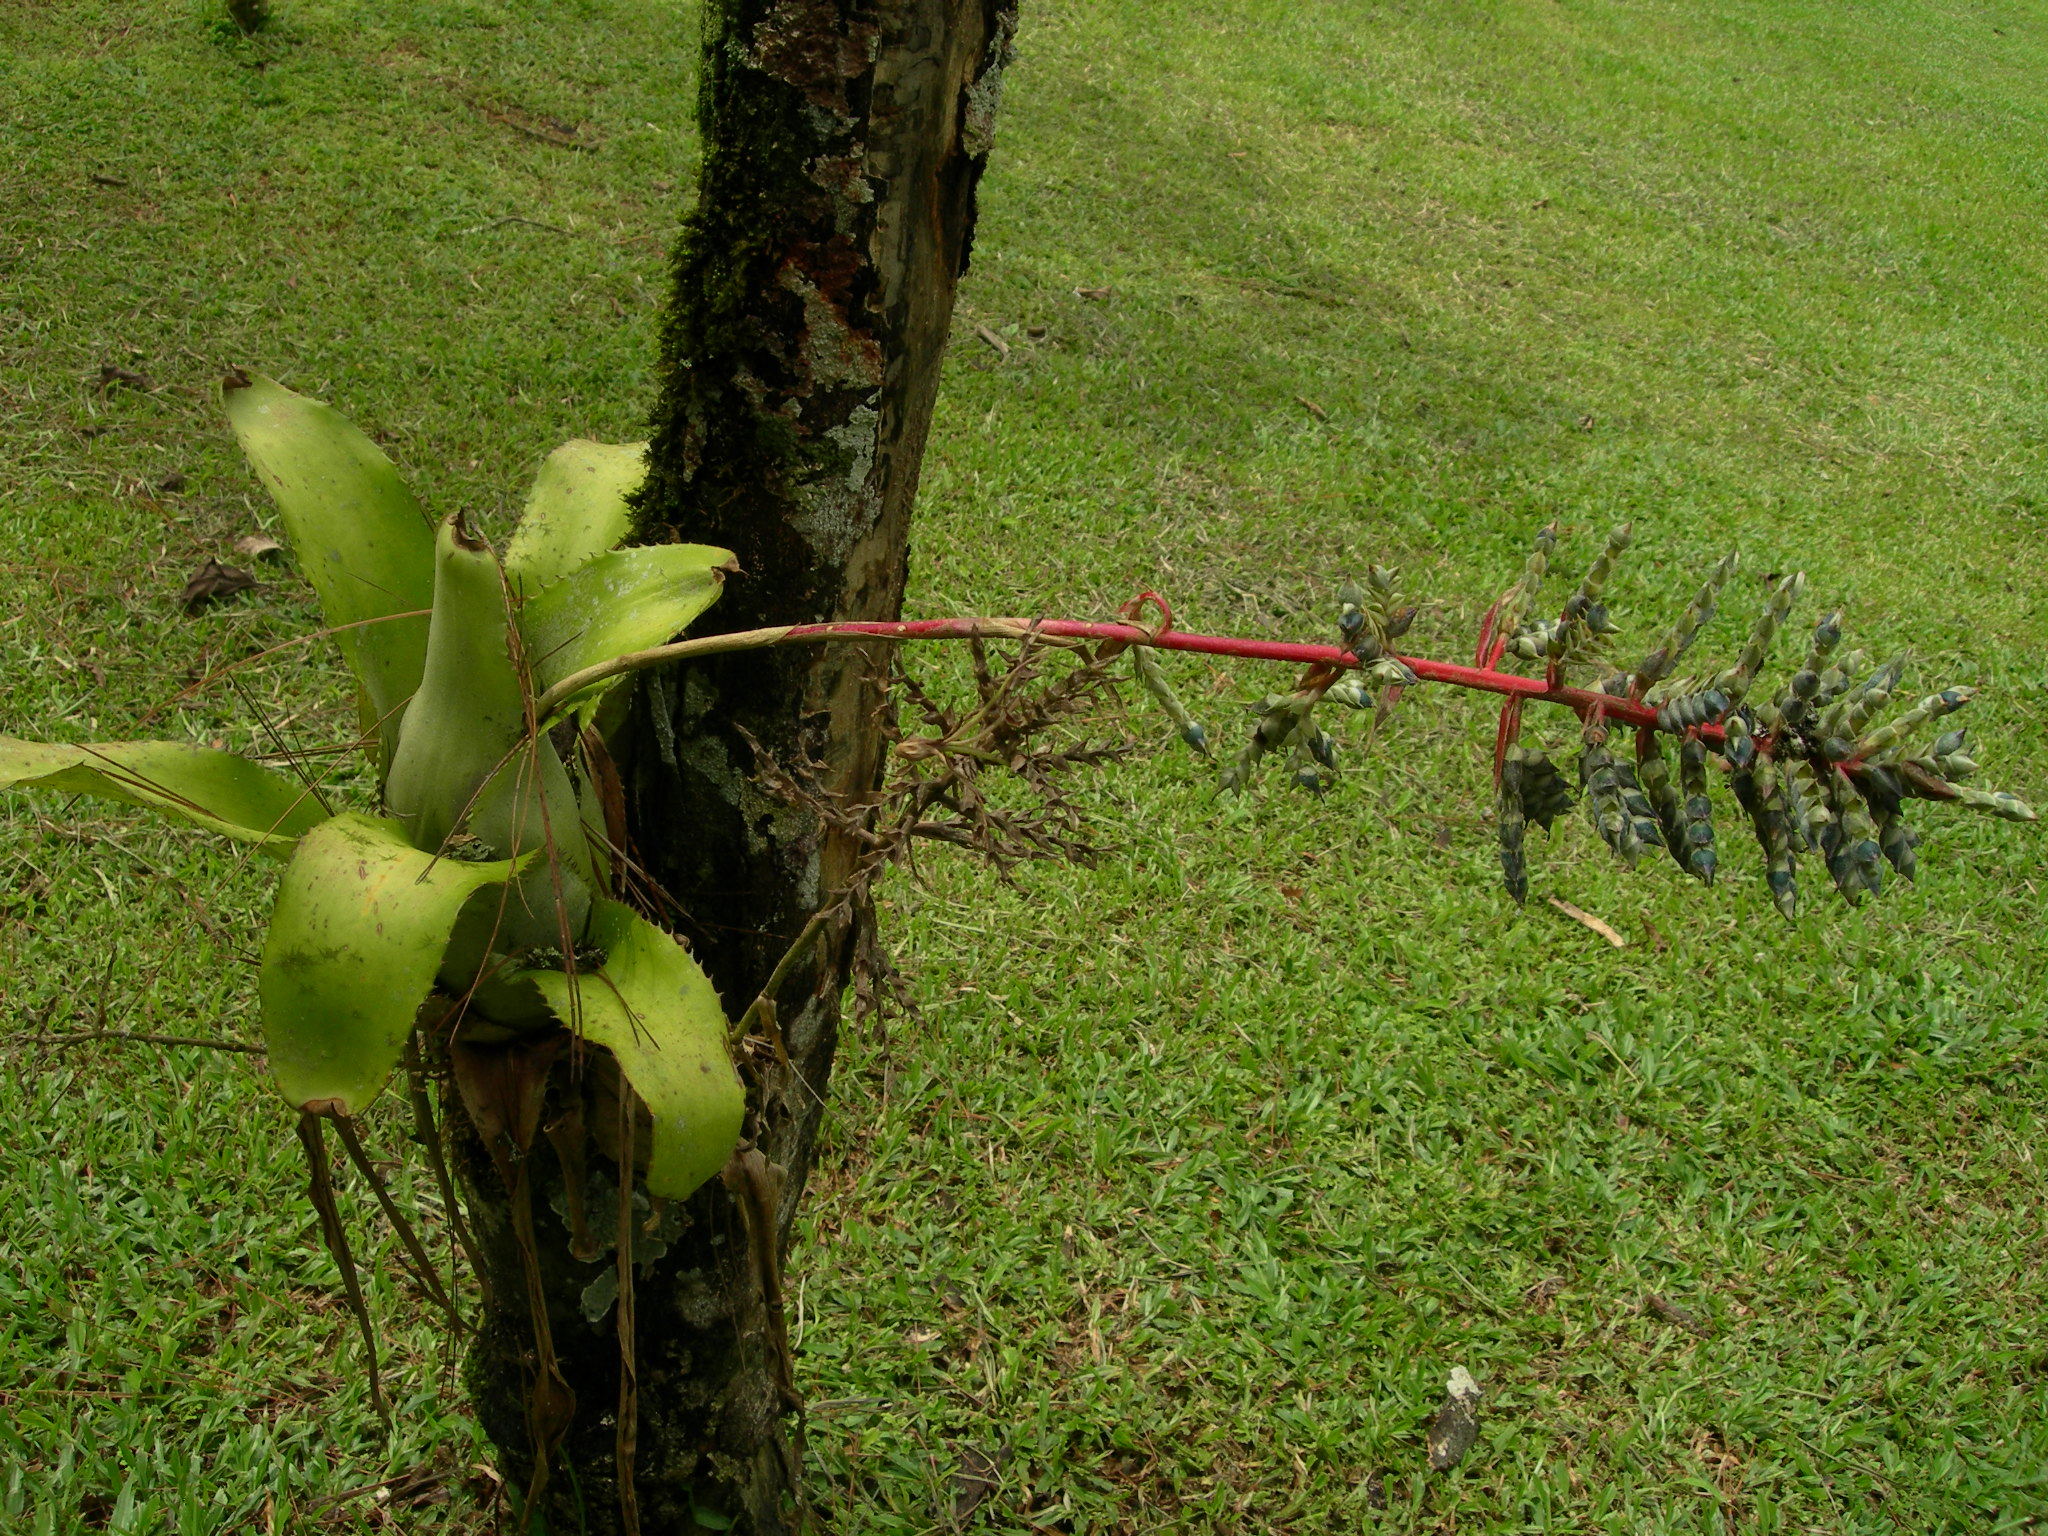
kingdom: Plantae
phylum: Tracheophyta
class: Liliopsida
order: Poales
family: Bromeliaceae
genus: Aechmea
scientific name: Aechmea pubescens
